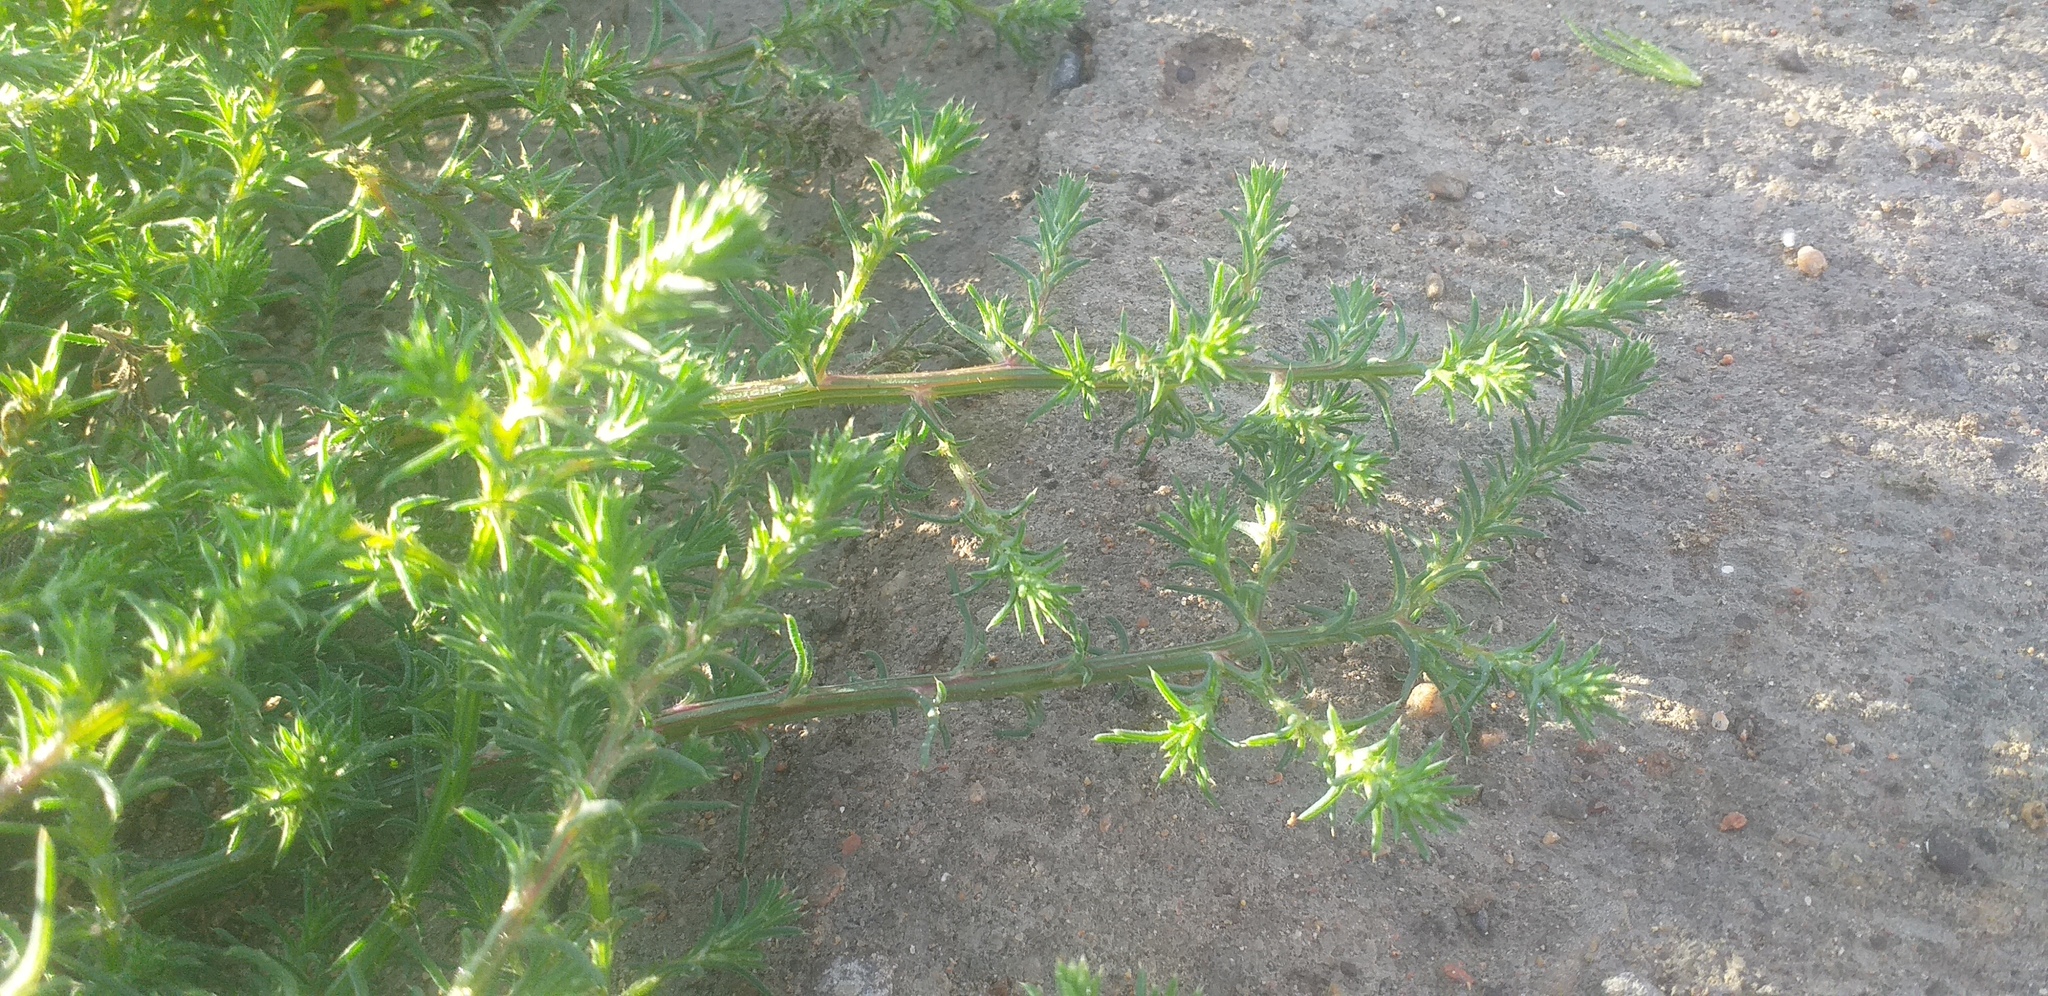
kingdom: Plantae
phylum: Tracheophyta
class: Magnoliopsida
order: Caryophyllales
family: Amaranthaceae
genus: Salsola
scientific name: Salsola collina
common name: Tumbleweed
